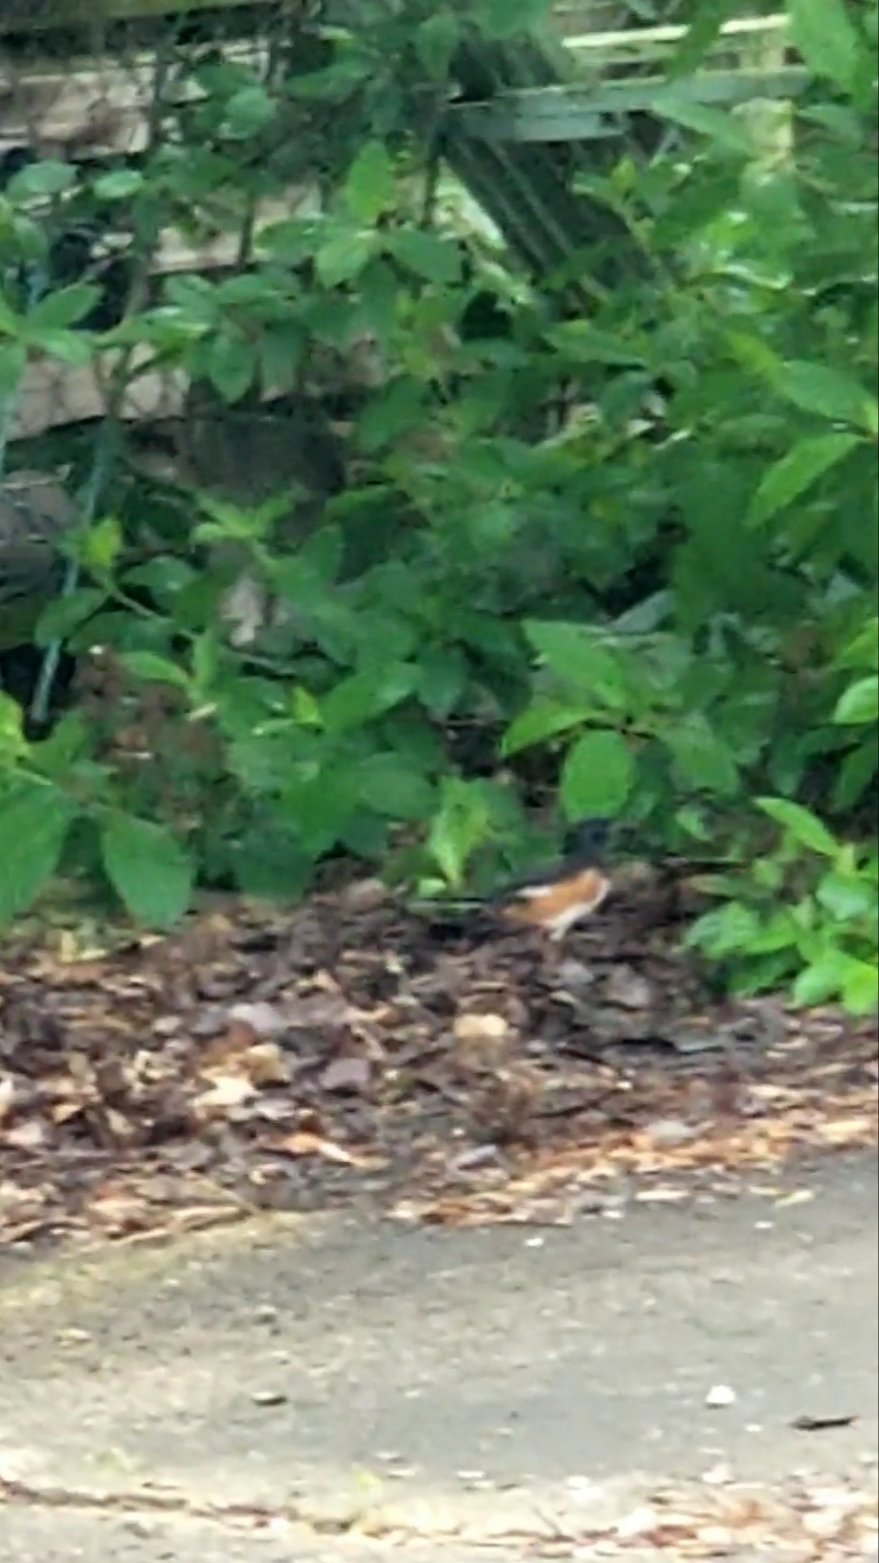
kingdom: Animalia
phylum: Chordata
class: Aves
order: Passeriformes
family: Passerellidae
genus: Pipilo
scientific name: Pipilo erythrophthalmus
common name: Eastern towhee
